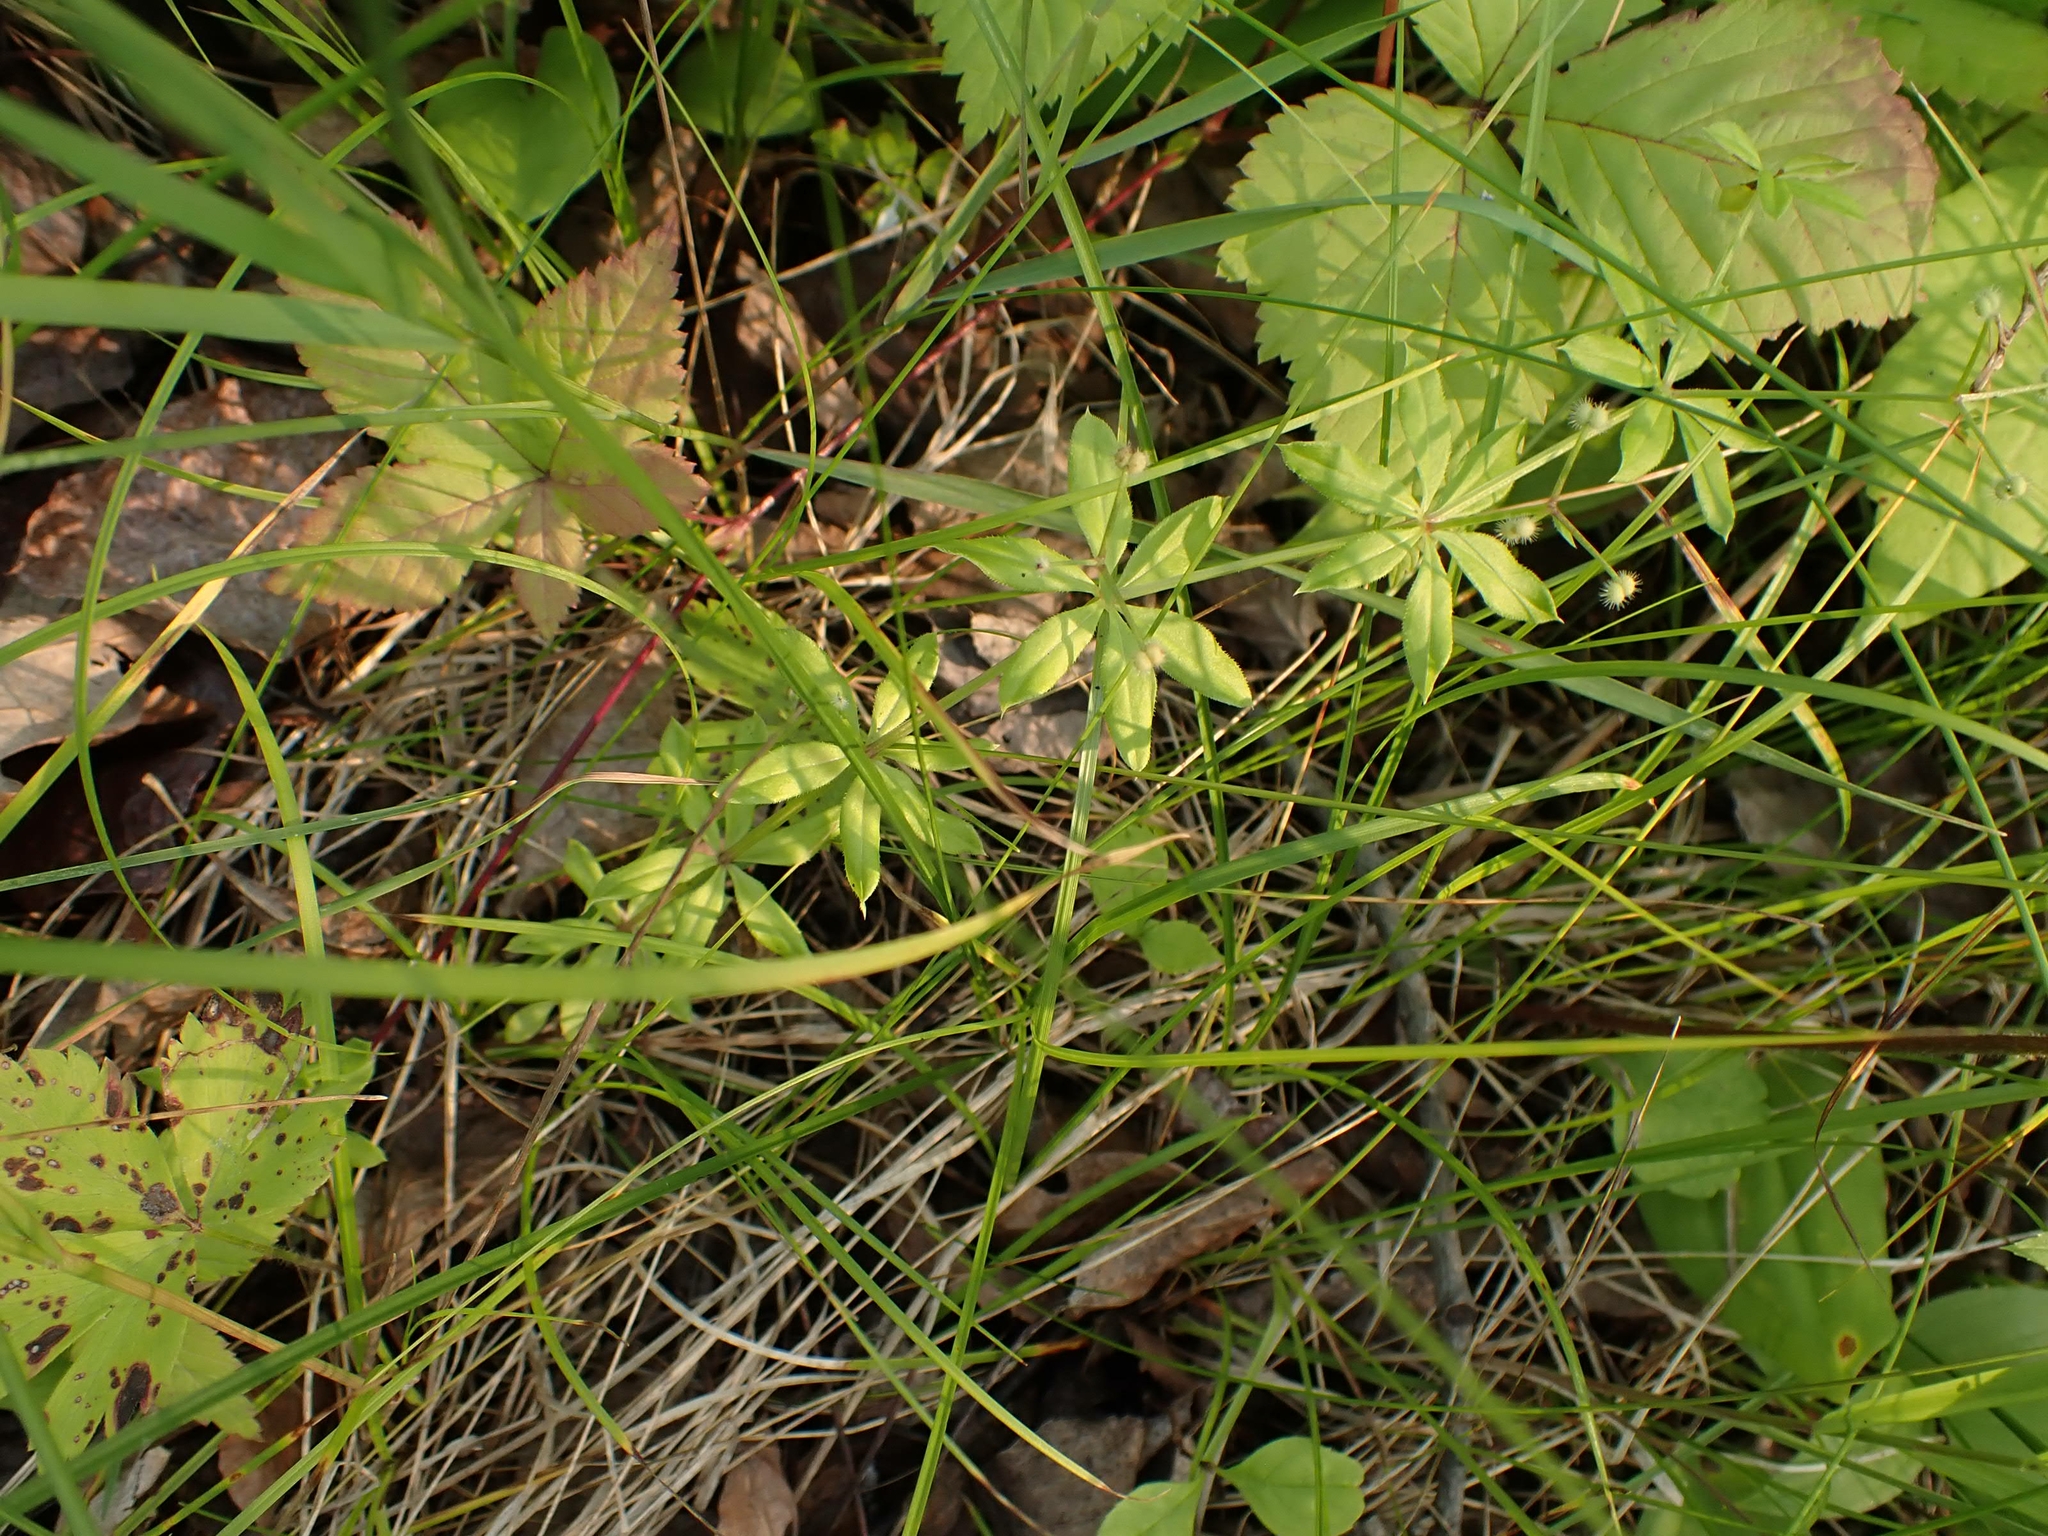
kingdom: Plantae
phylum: Tracheophyta
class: Magnoliopsida
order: Gentianales
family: Rubiaceae
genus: Galium
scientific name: Galium triflorum
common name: Fragrant bedstraw
